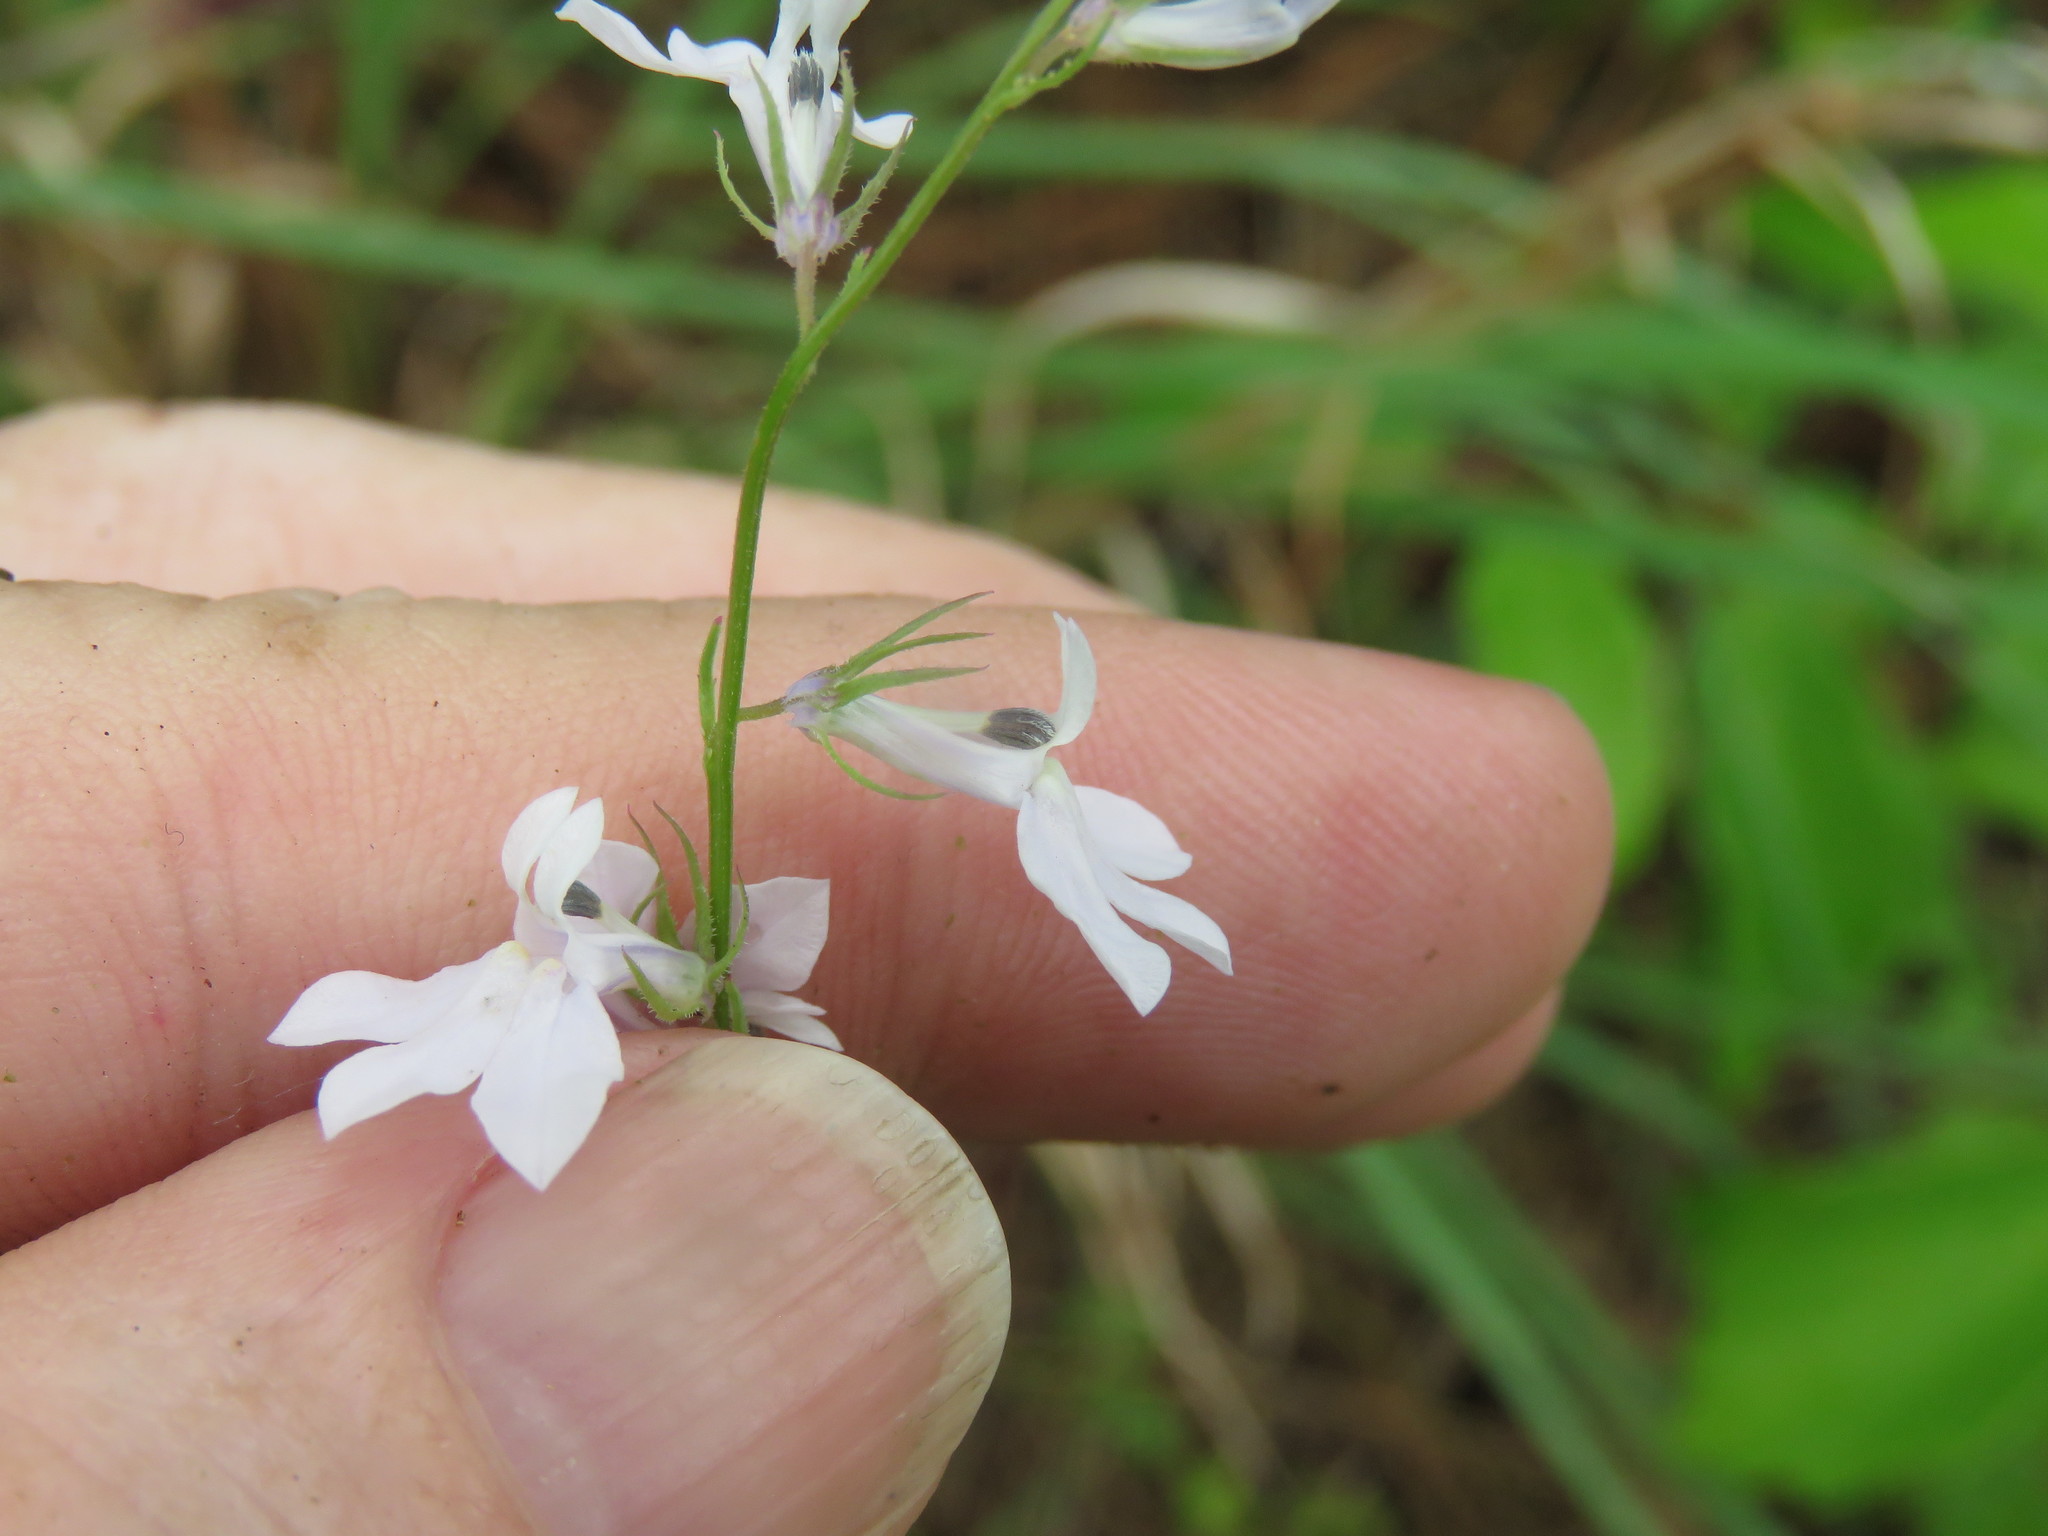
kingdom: Plantae
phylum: Tracheophyta
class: Magnoliopsida
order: Asterales
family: Campanulaceae
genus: Lobelia
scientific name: Lobelia appendiculata
